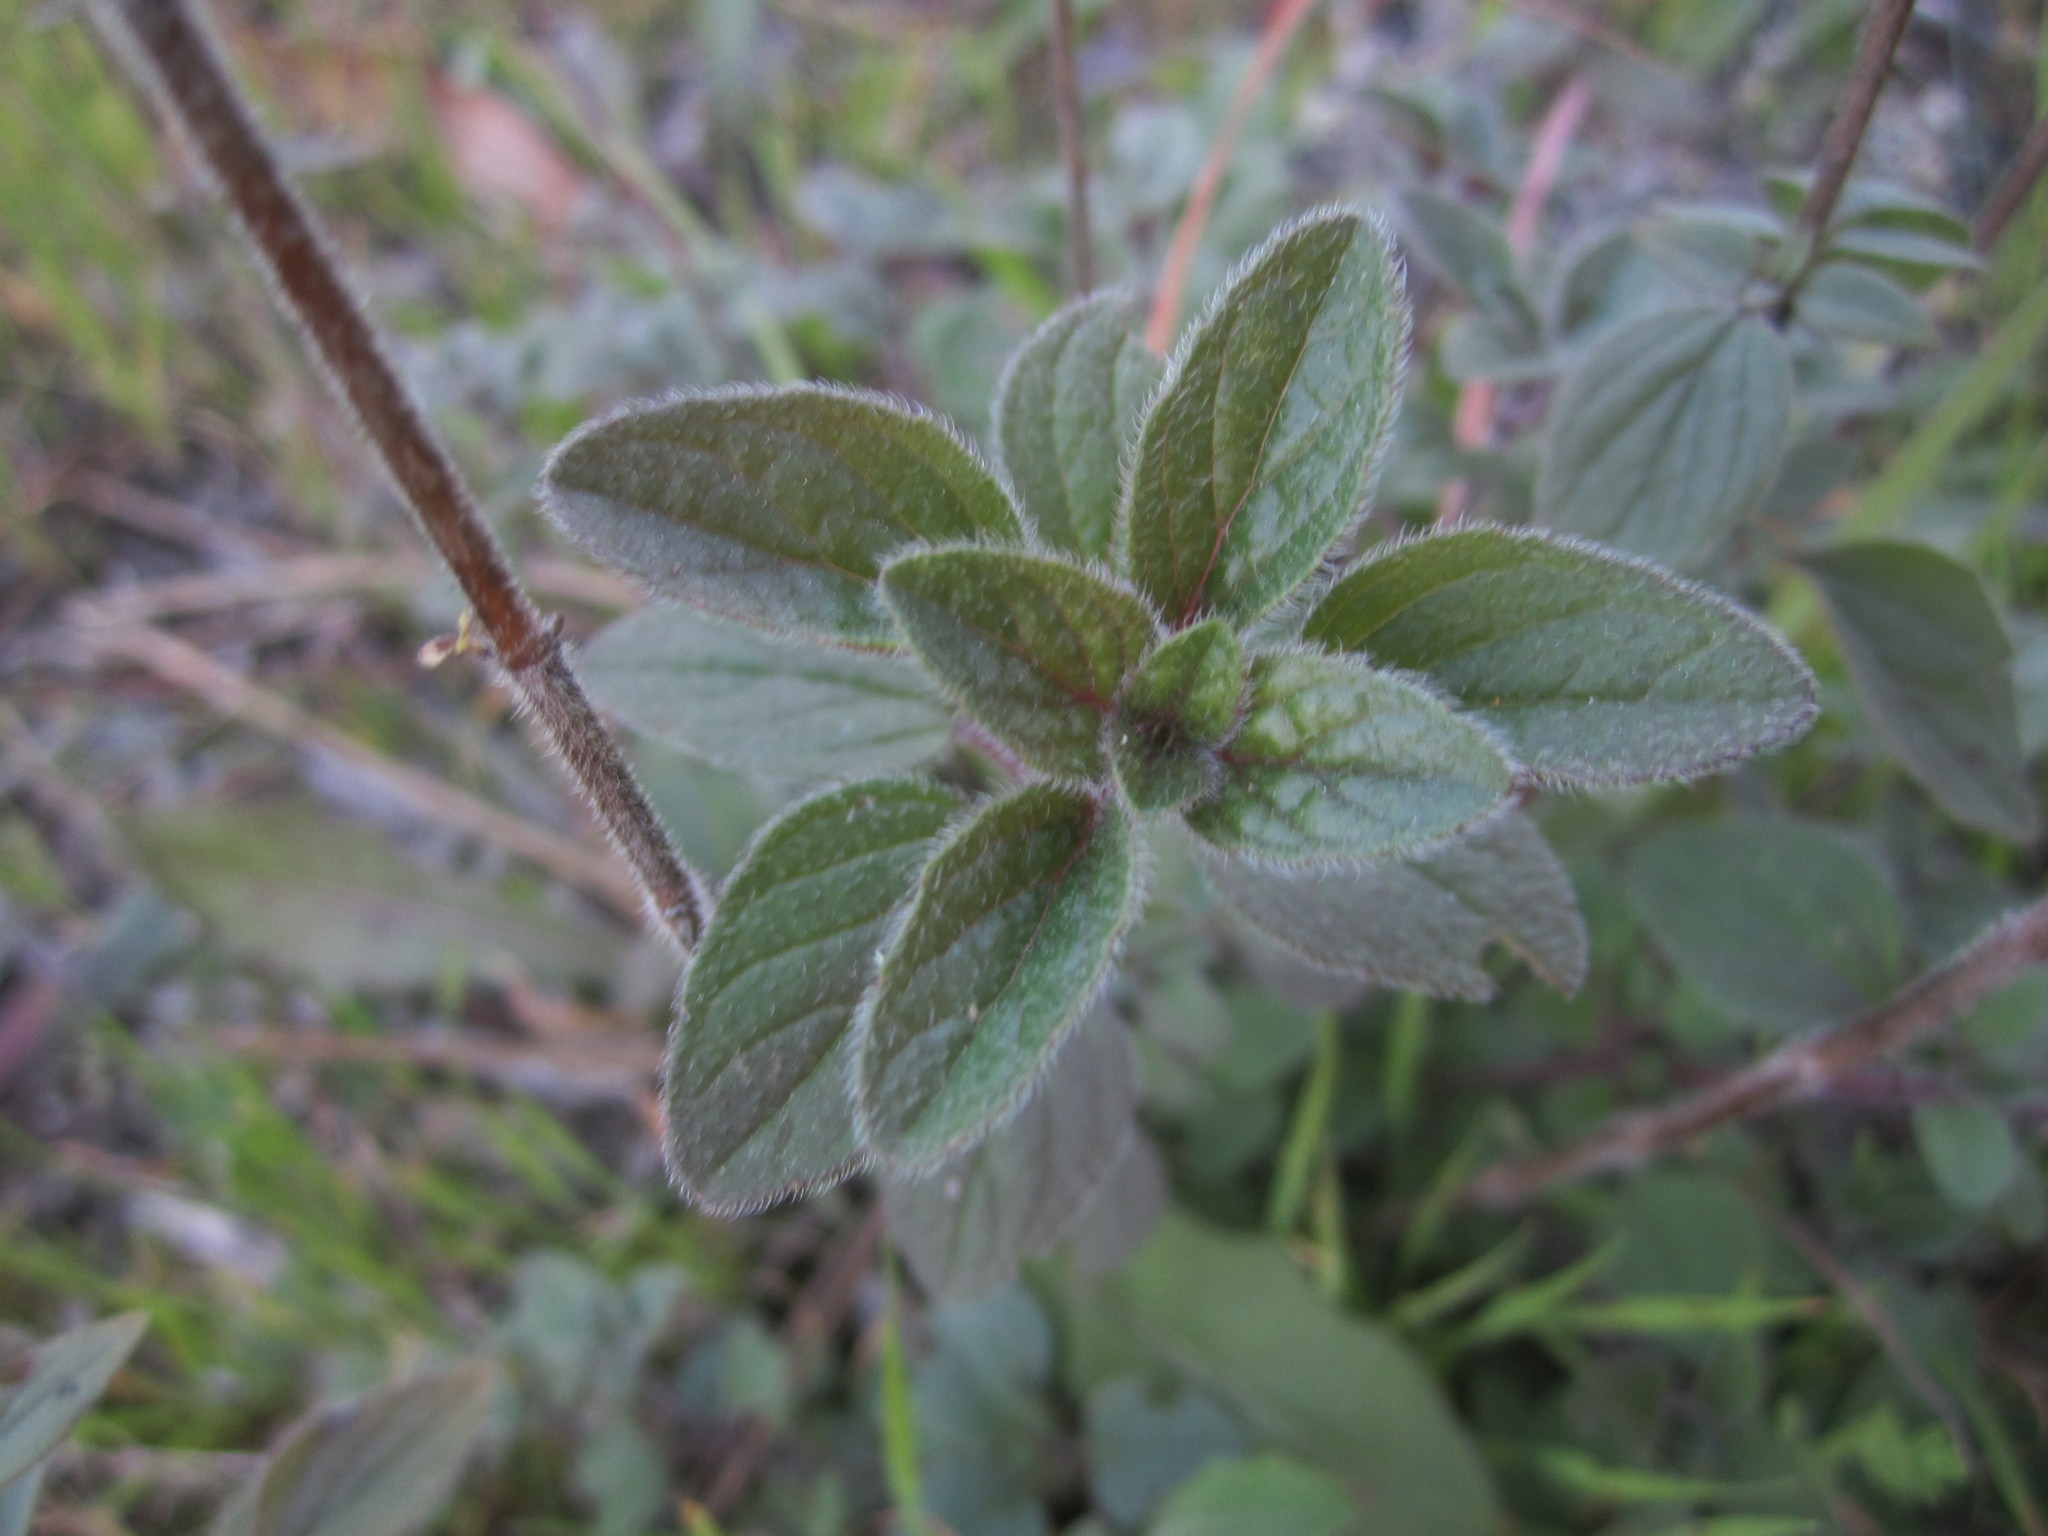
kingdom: Plantae
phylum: Tracheophyta
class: Magnoliopsida
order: Lamiales
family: Lamiaceae
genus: Origanum
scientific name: Origanum vulgare
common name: Wild marjoram
